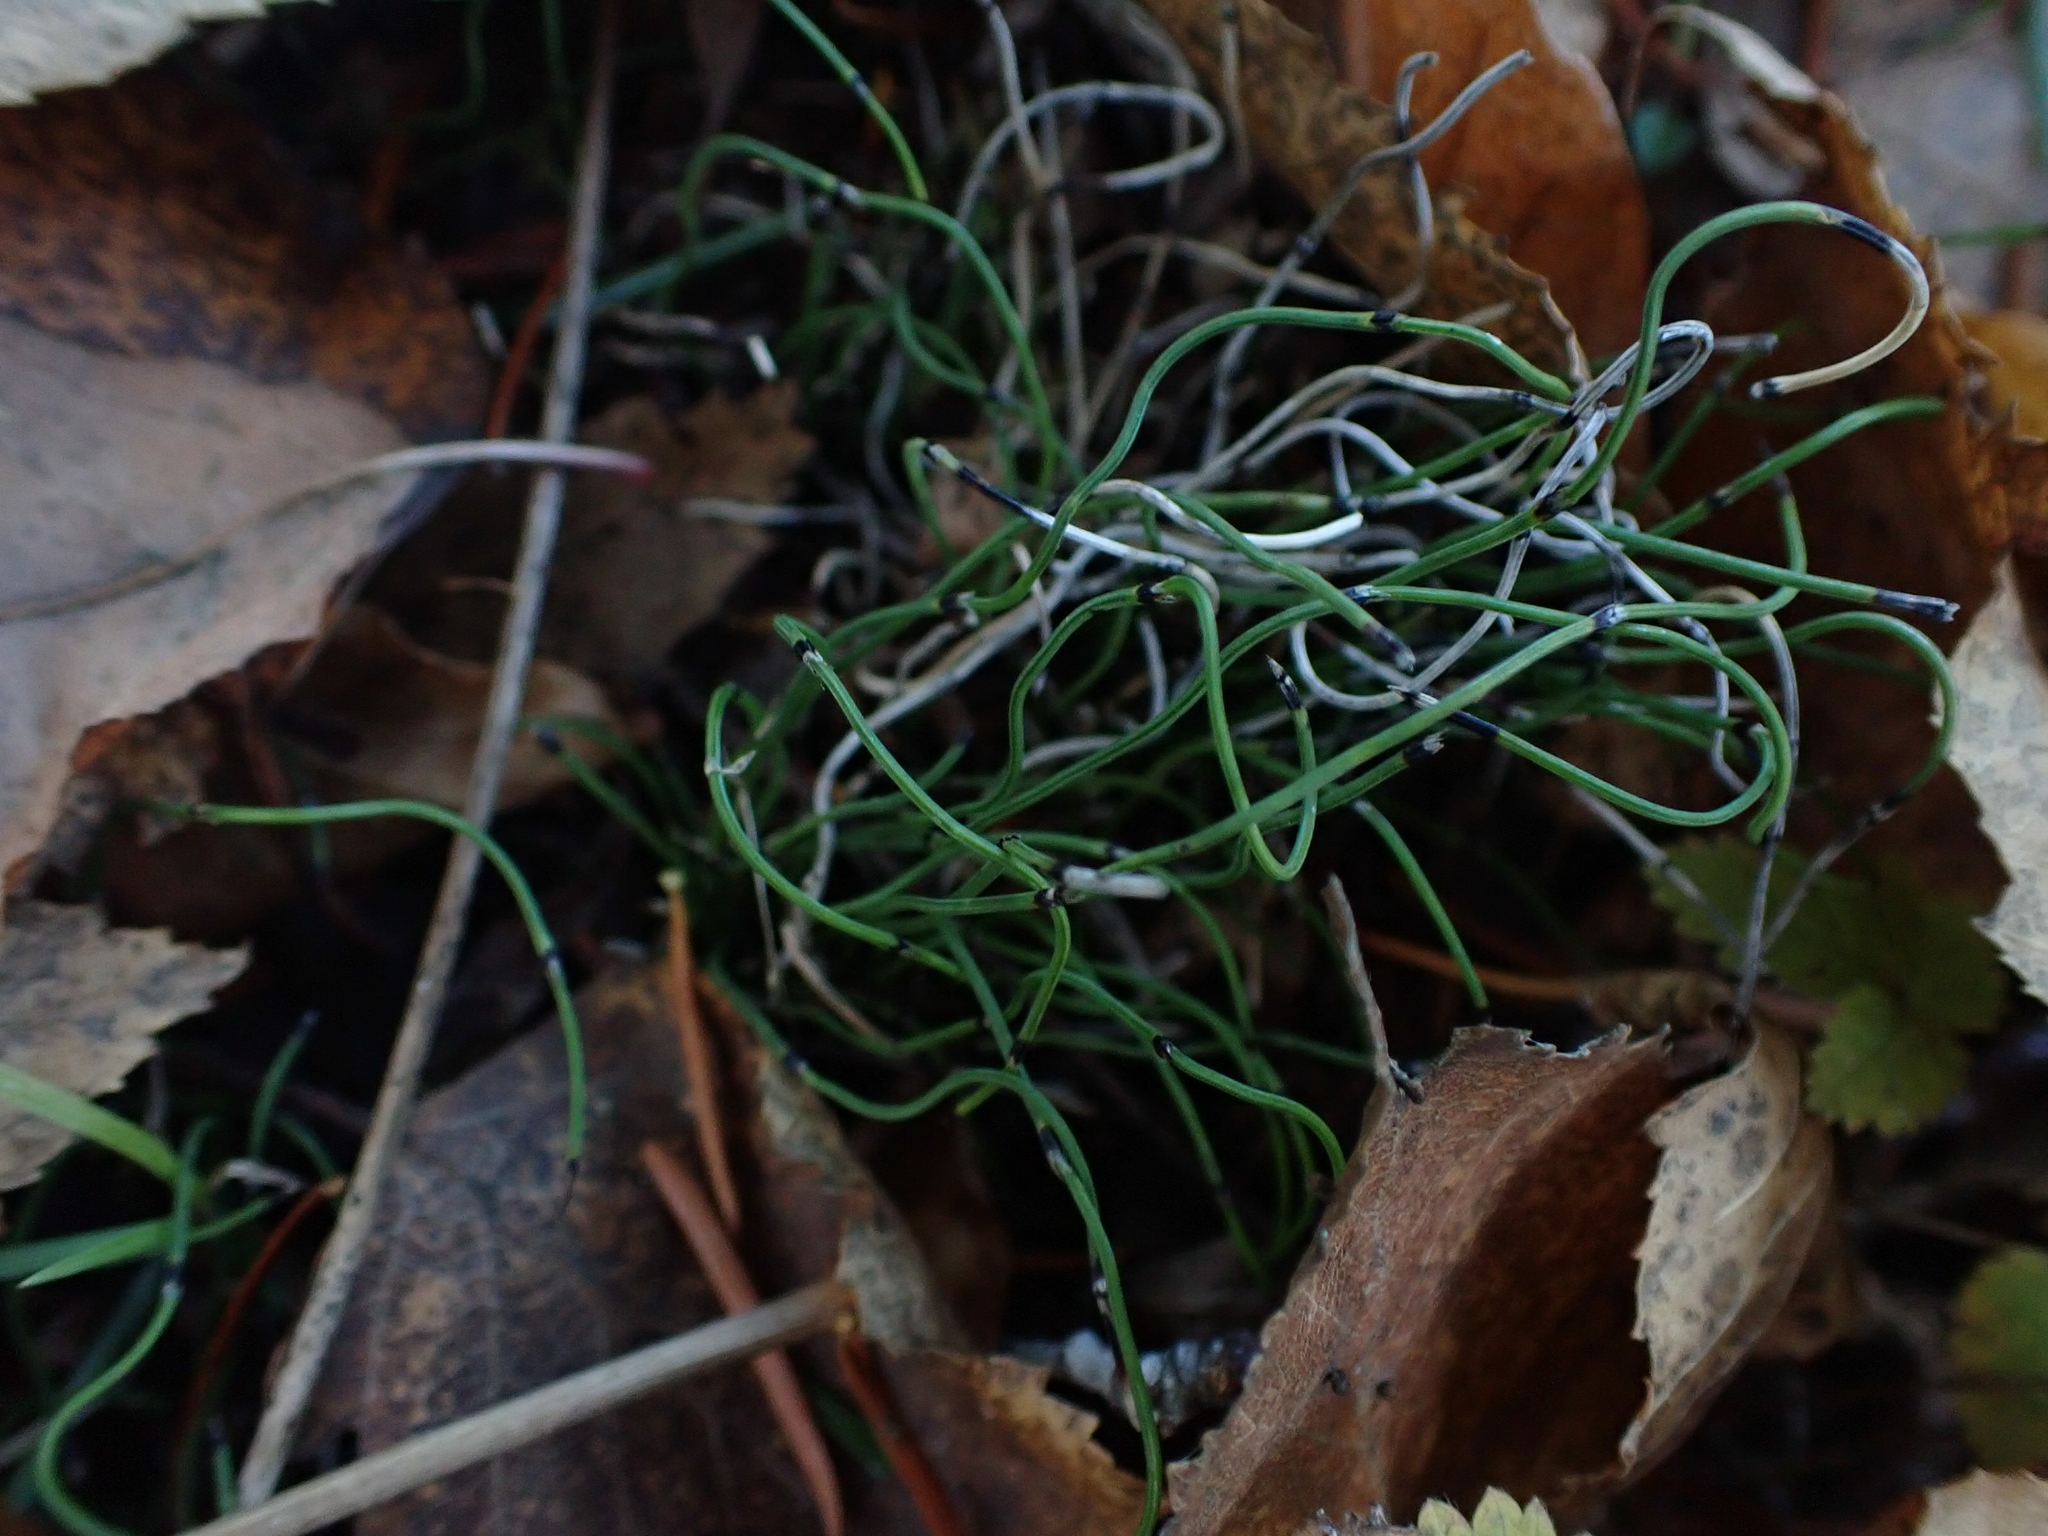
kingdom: Plantae
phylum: Tracheophyta
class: Polypodiopsida
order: Equisetales
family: Equisetaceae
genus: Equisetum
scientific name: Equisetum scirpoides
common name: Delicate horsetail
